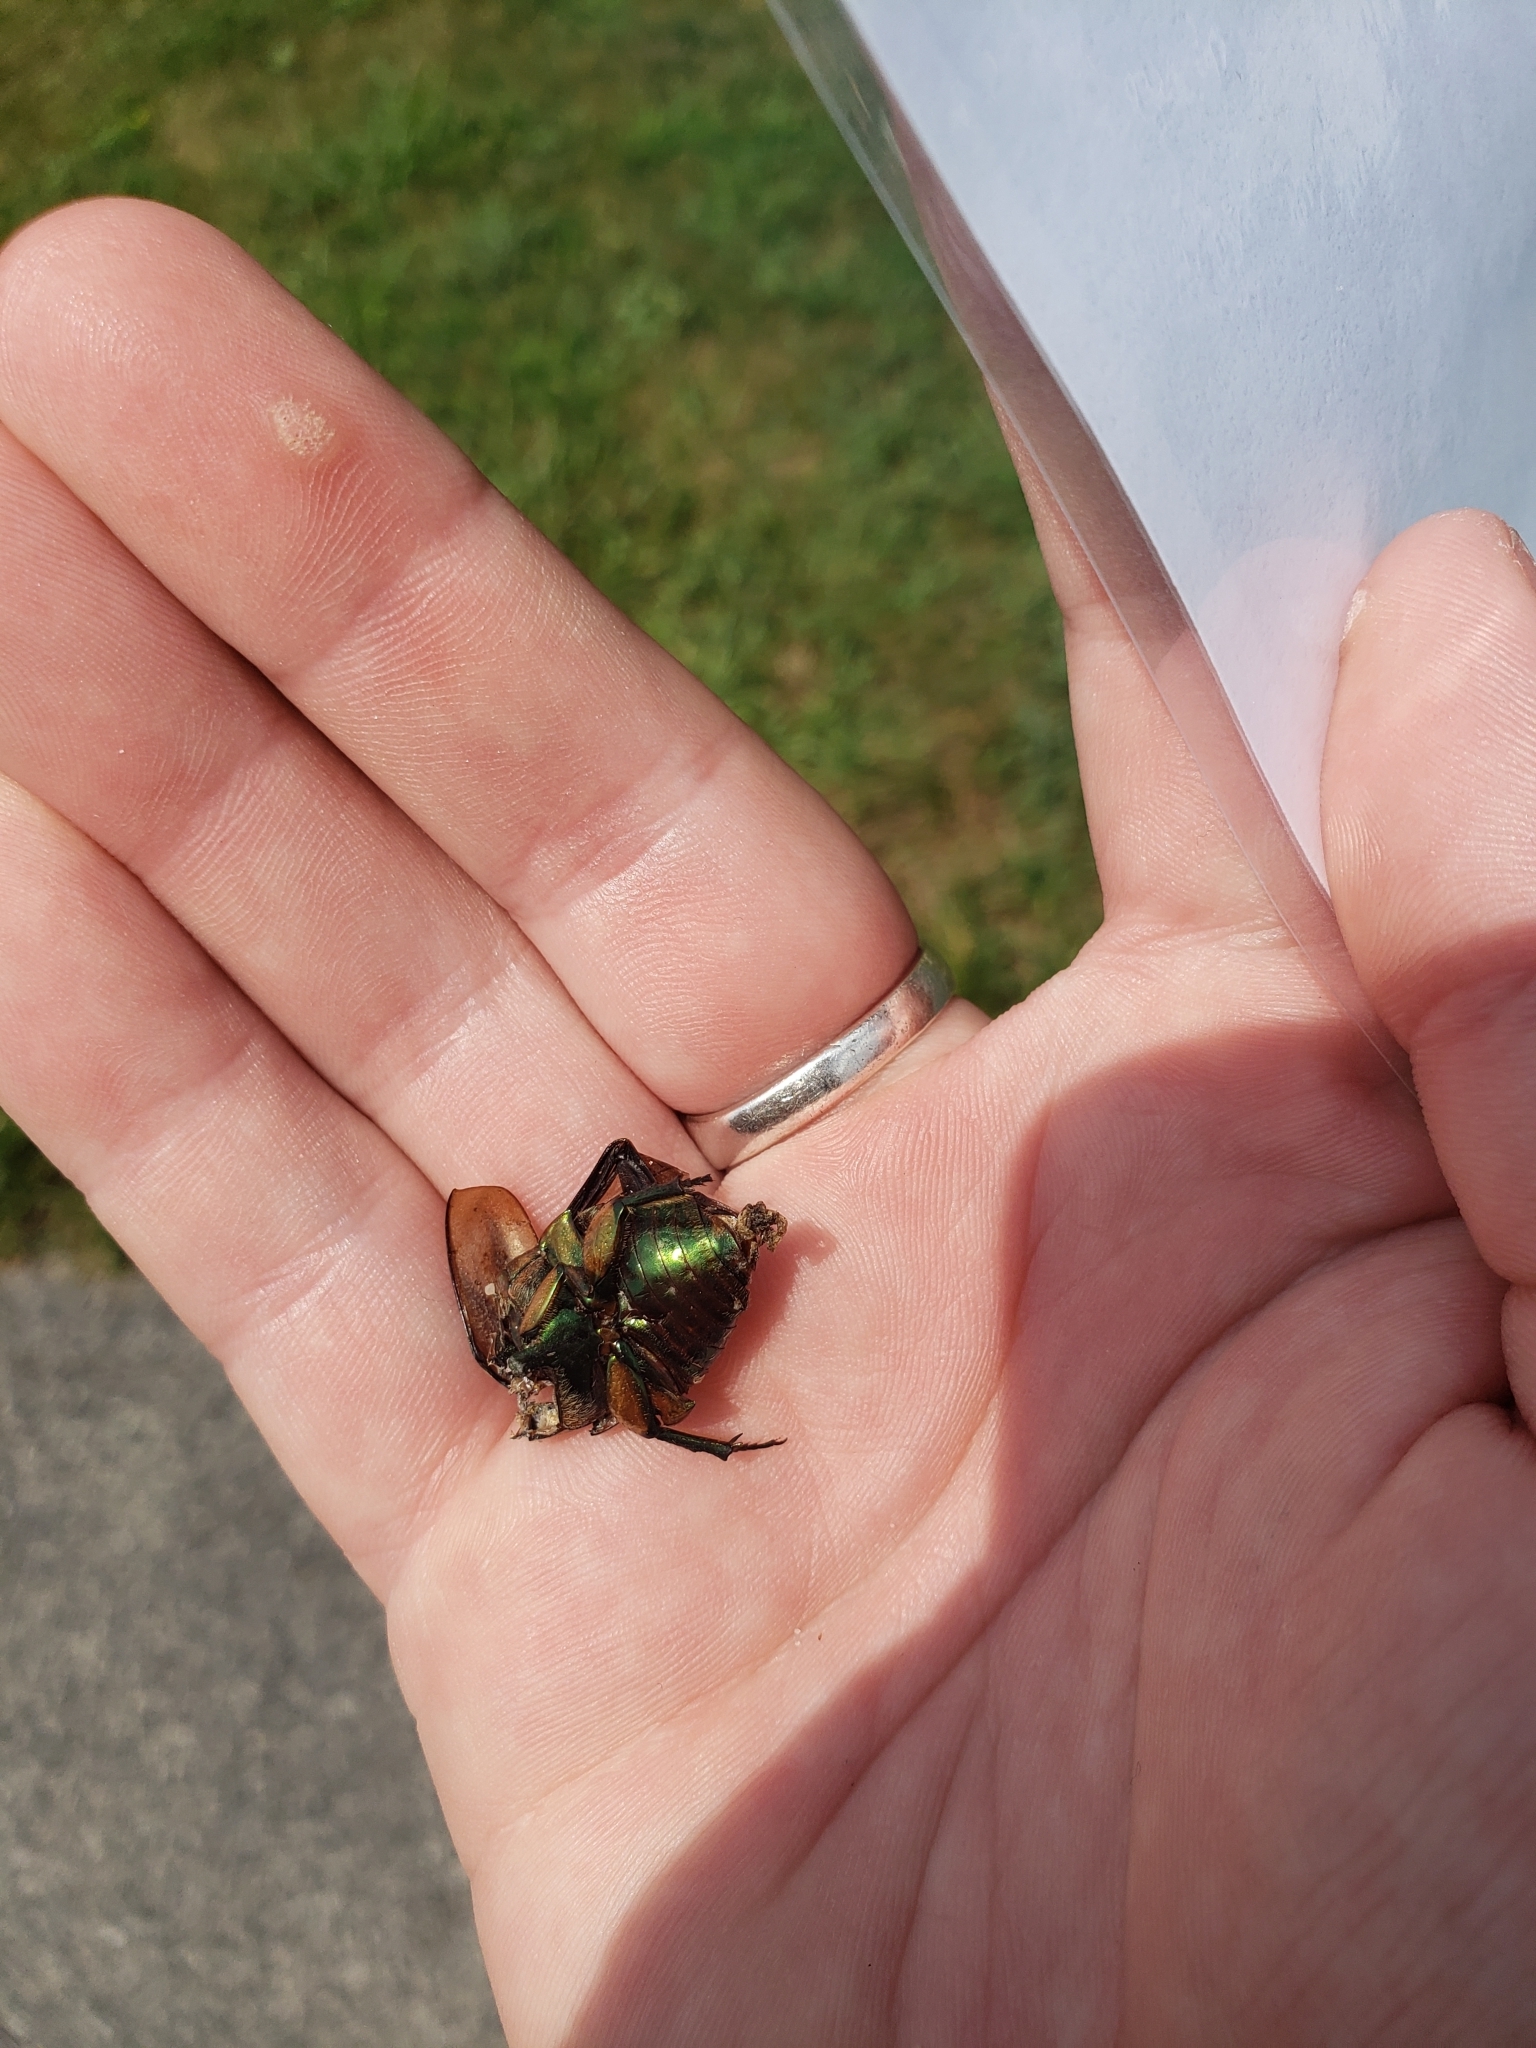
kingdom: Animalia
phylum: Arthropoda
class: Insecta
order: Coleoptera
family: Scarabaeidae
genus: Cotinis
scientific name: Cotinis nitida
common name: Common green june beetle
